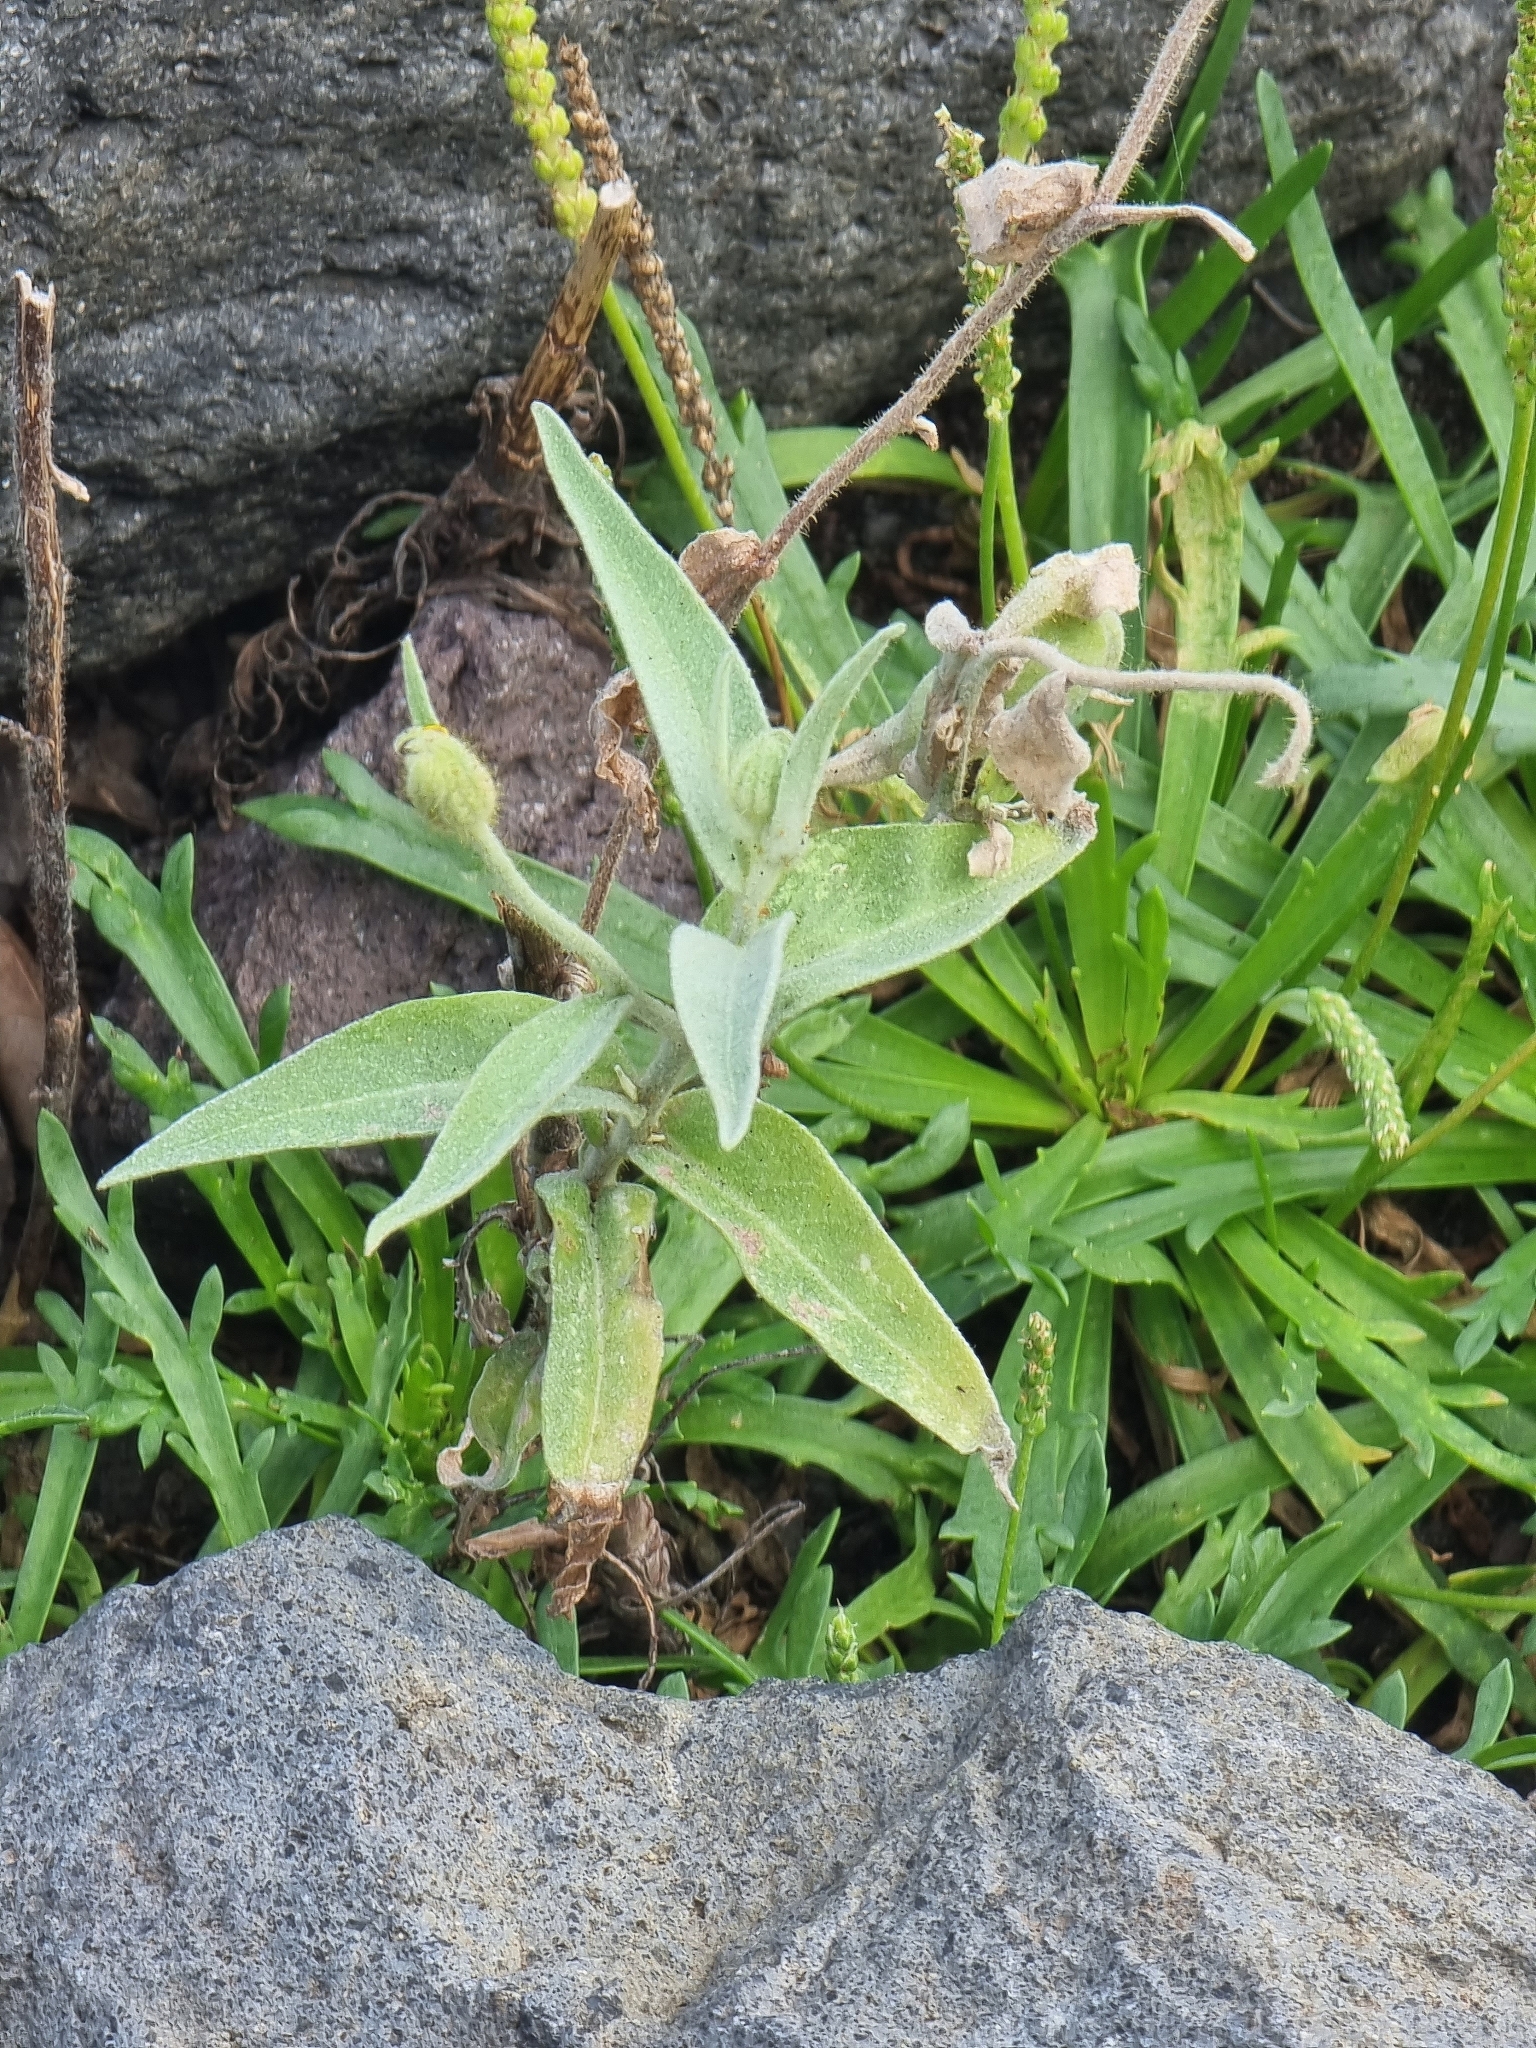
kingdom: Plantae
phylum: Tracheophyta
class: Magnoliopsida
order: Asterales
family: Asteraceae
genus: Andryala
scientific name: Andryala glandulosa
